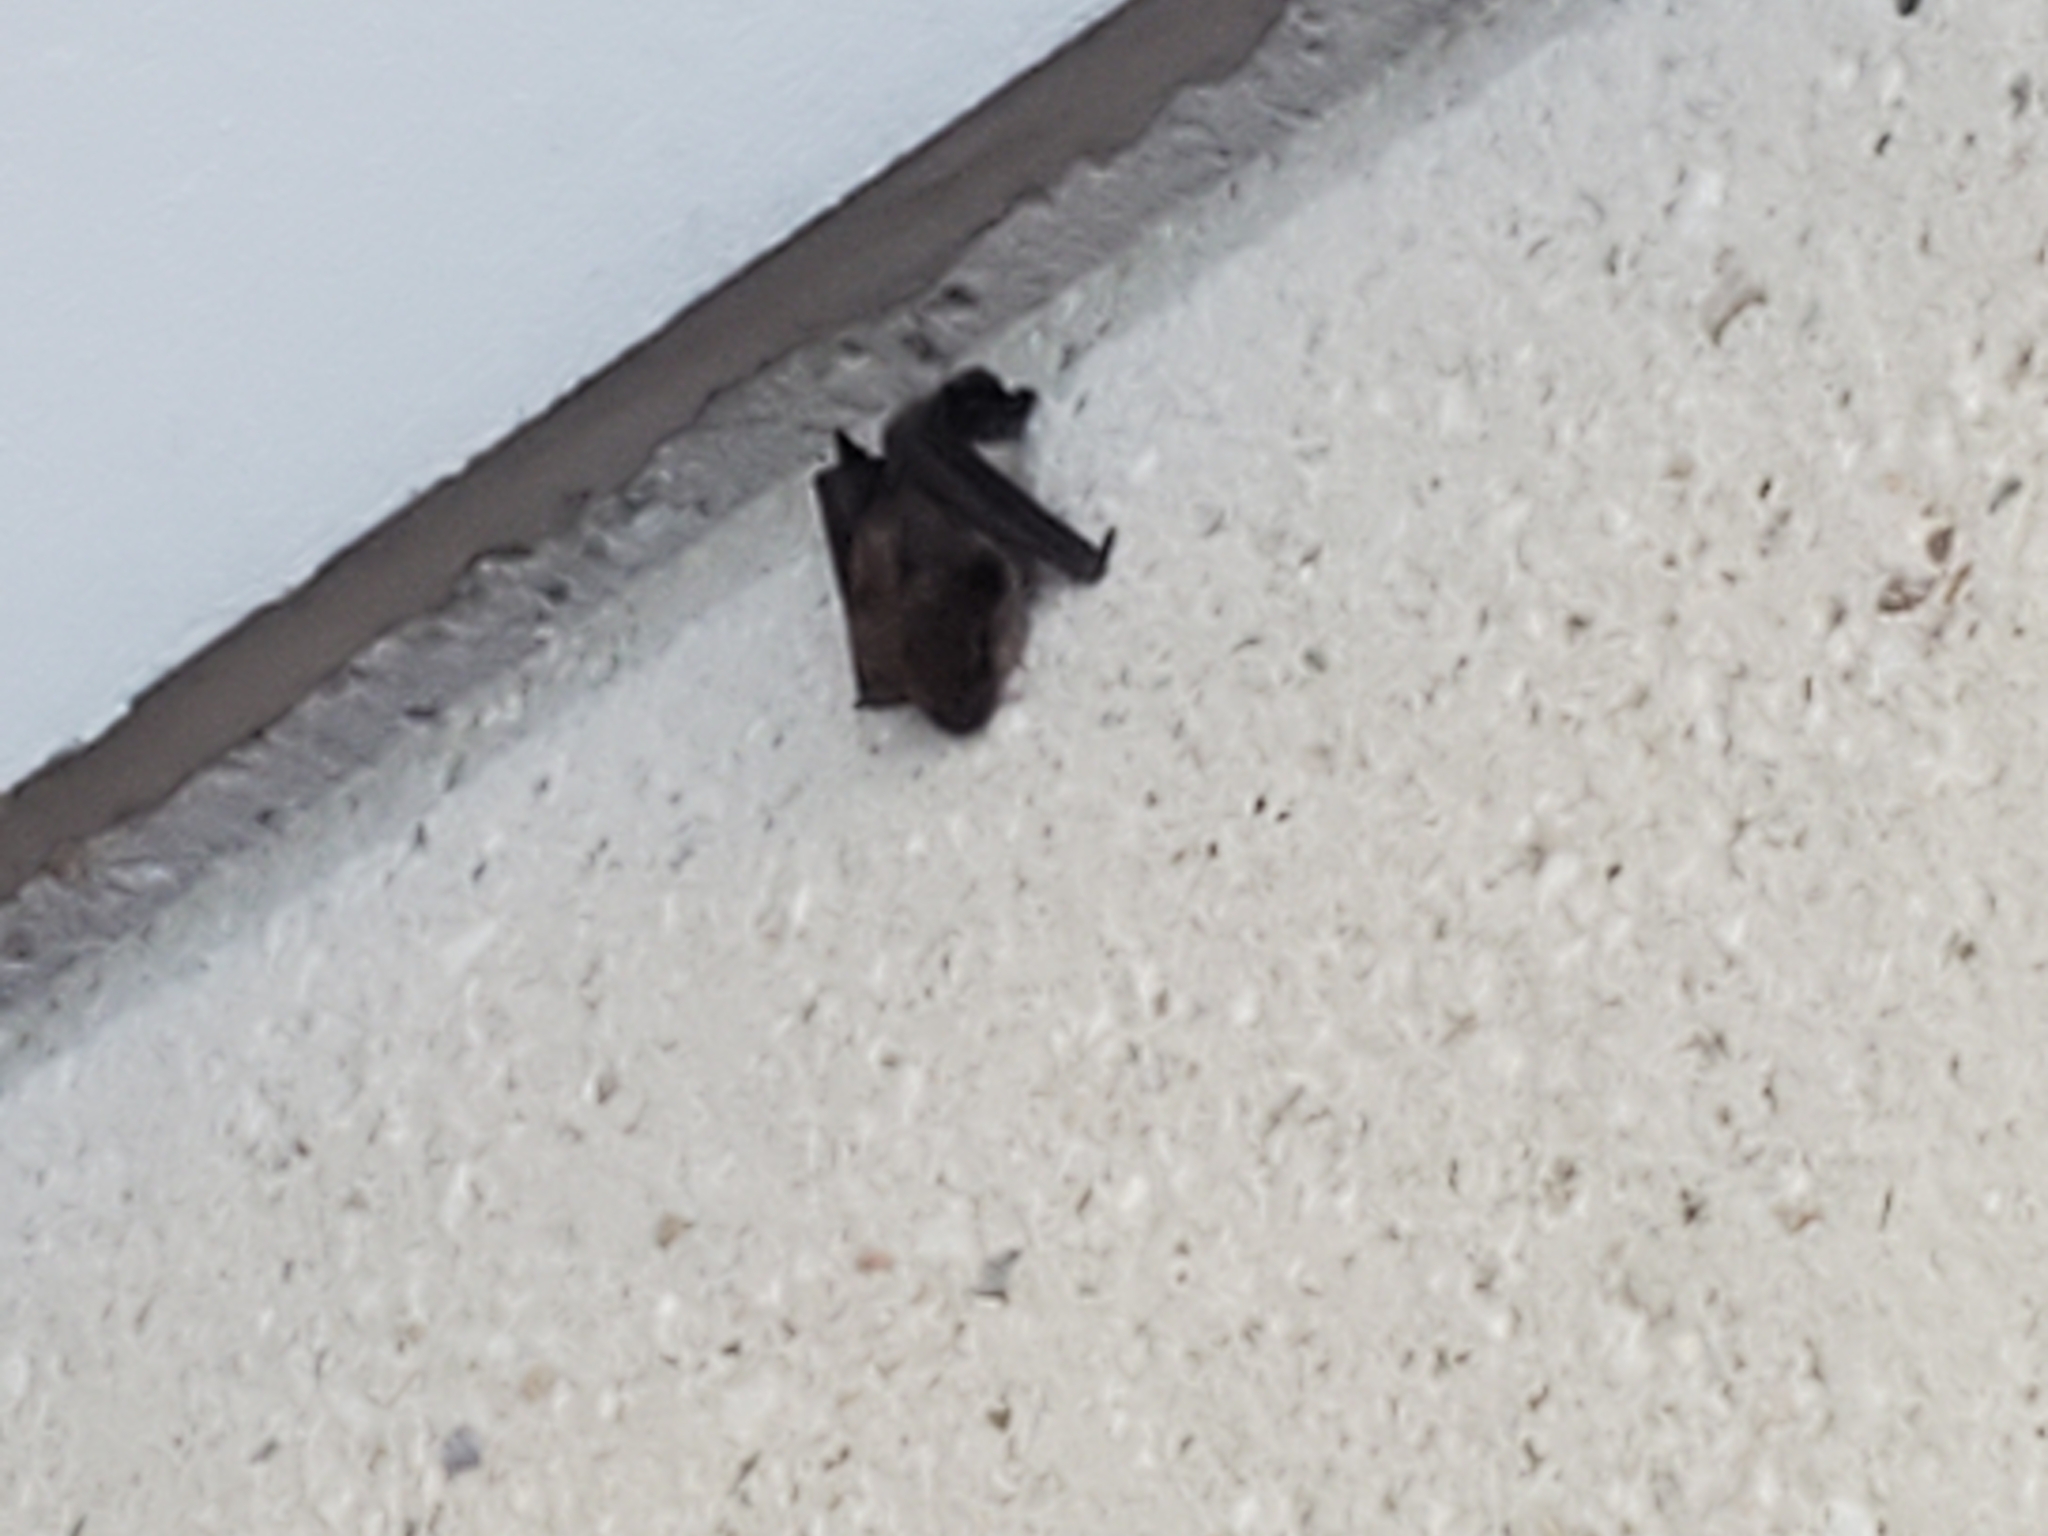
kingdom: Animalia
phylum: Chordata
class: Mammalia
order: Chiroptera
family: Vespertilionidae
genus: Eptesicus
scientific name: Eptesicus fuscus
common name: Big brown bat
